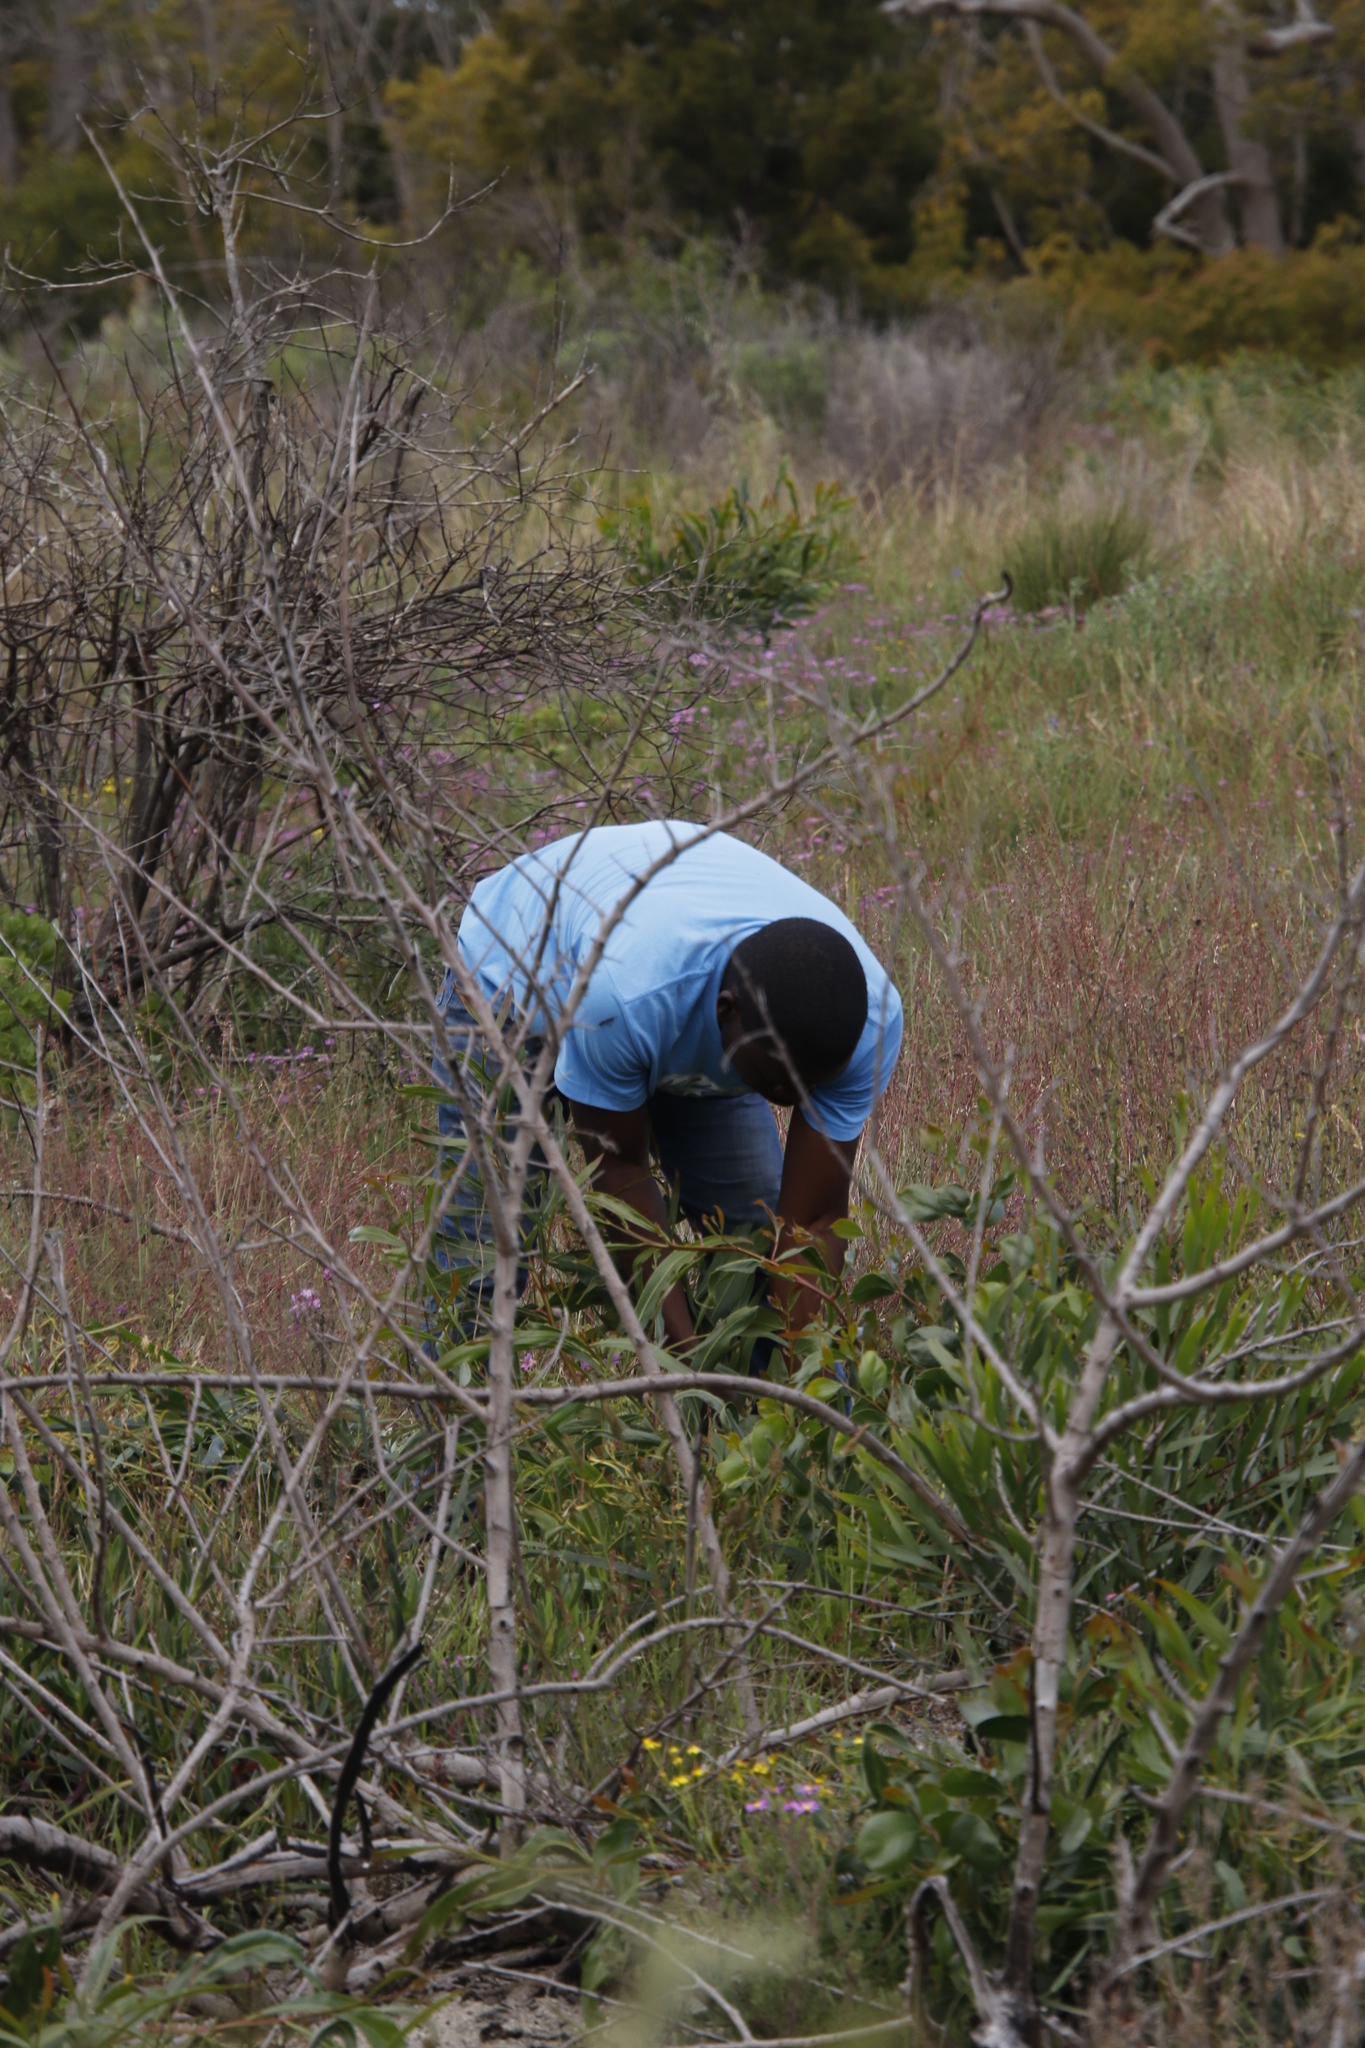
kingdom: Plantae
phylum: Tracheophyta
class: Magnoliopsida
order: Fabales
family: Fabaceae
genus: Acacia
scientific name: Acacia saligna
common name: Orange wattle
